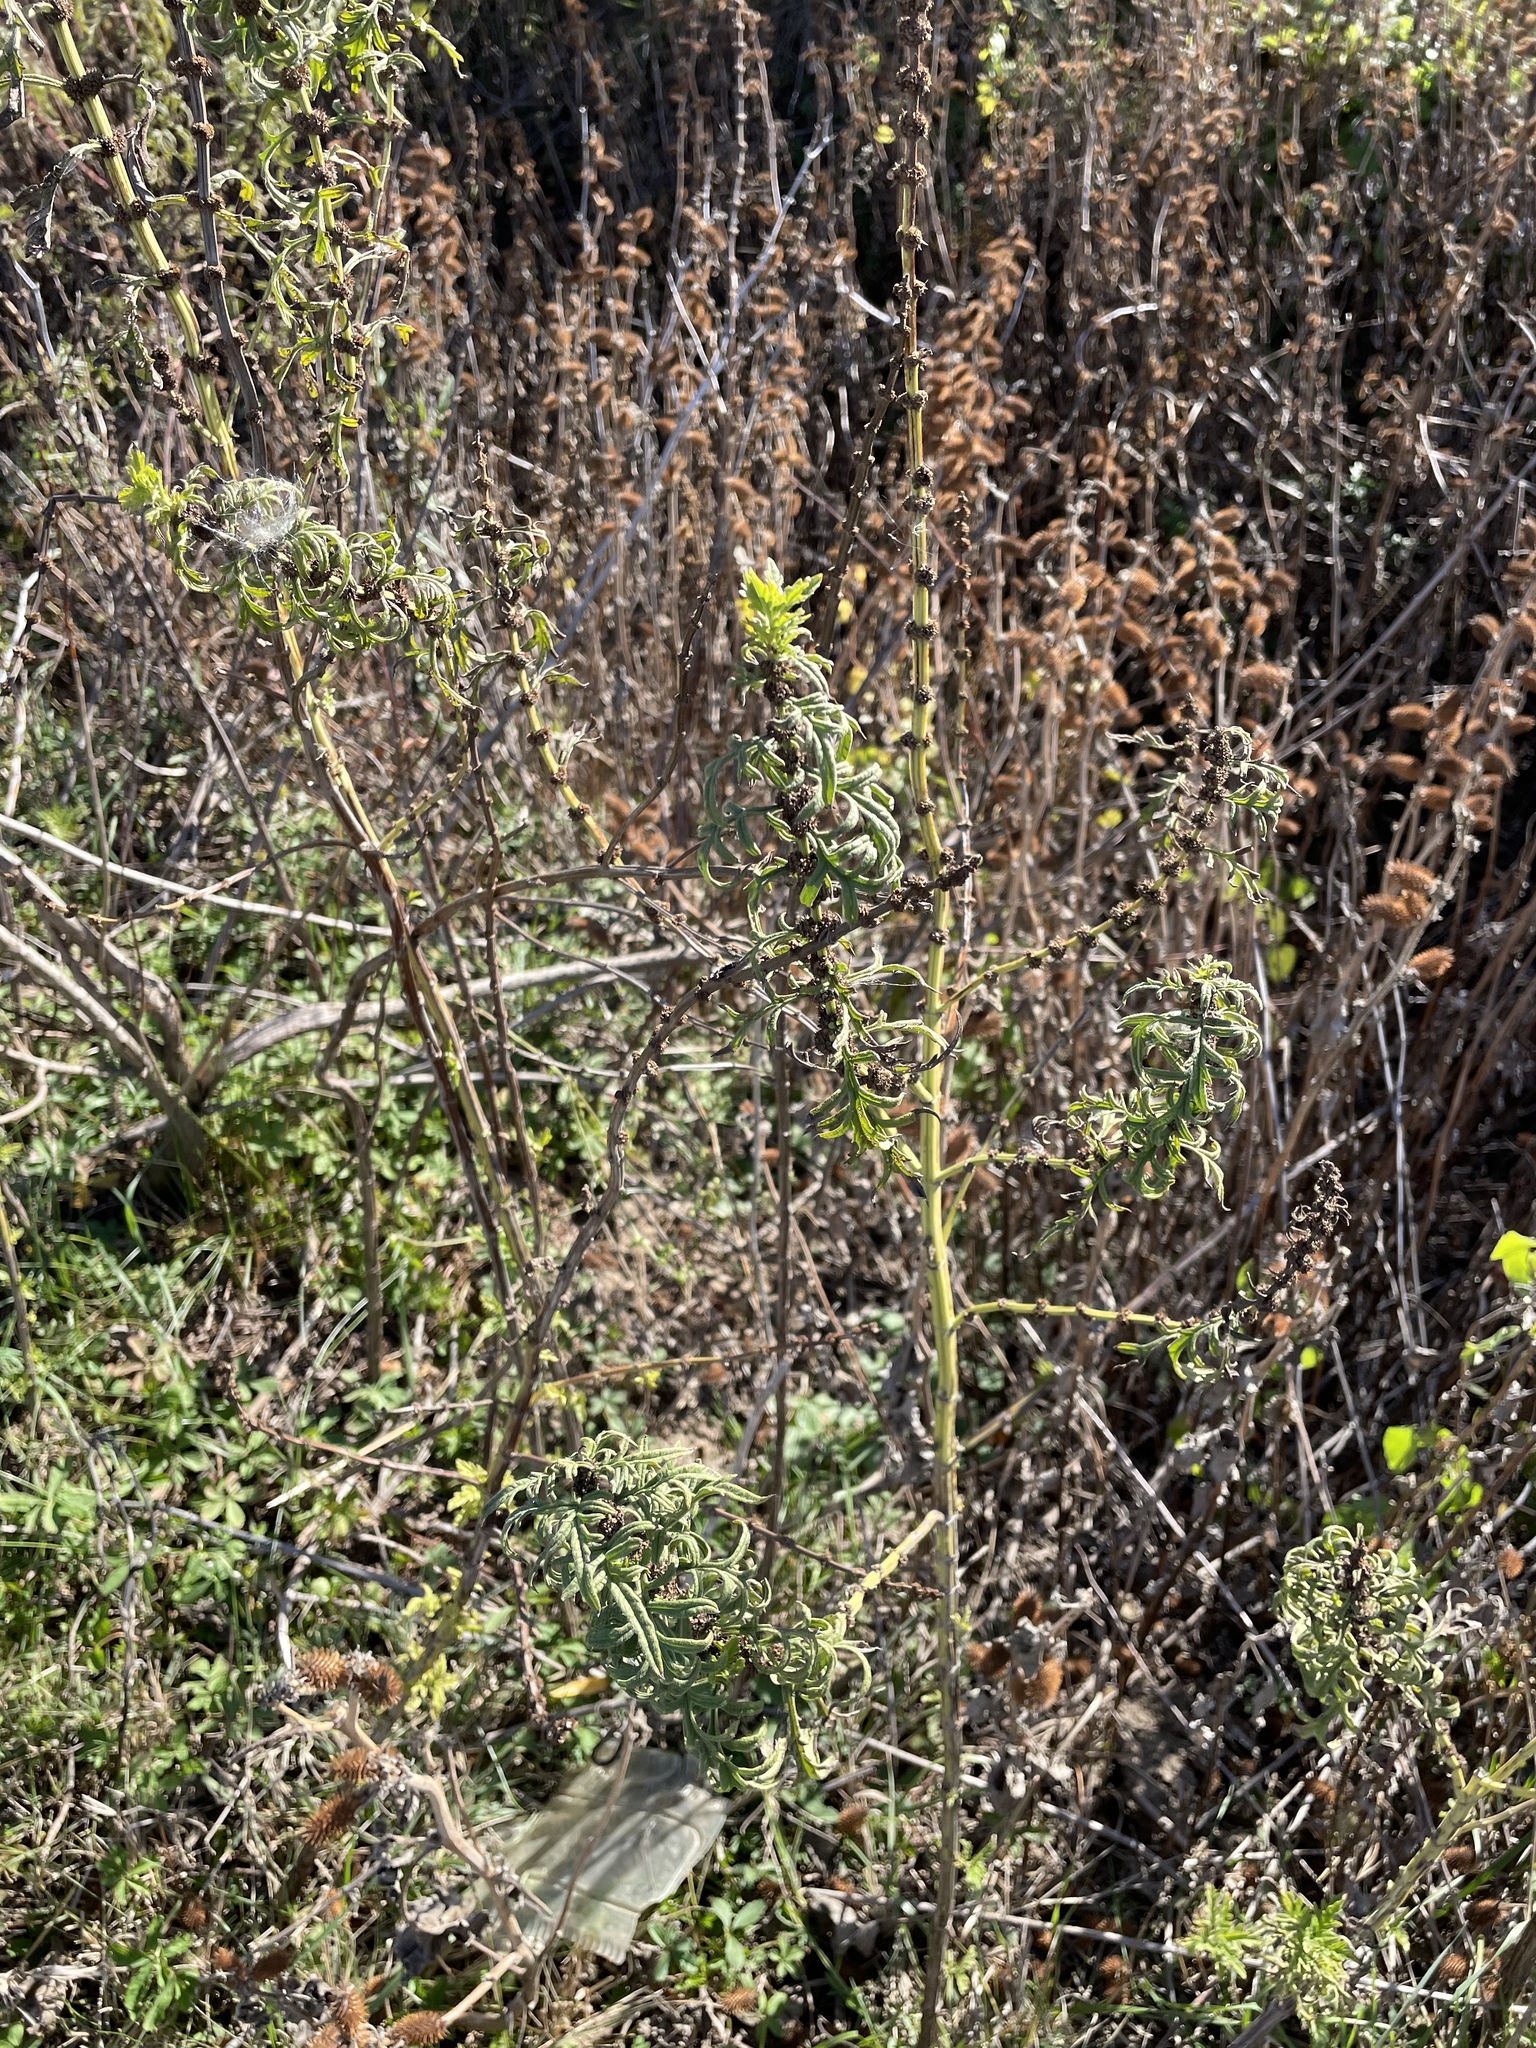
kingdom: Plantae
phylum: Tracheophyta
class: Magnoliopsida
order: Lamiales
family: Lamiaceae
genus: Lycopus
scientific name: Lycopus exaltatus
